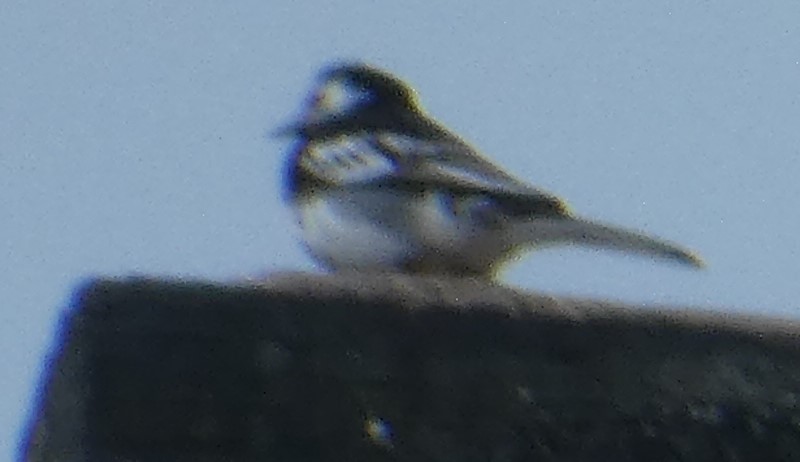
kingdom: Animalia
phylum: Chordata
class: Aves
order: Passeriformes
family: Motacillidae
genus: Motacilla
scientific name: Motacilla alba
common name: White wagtail
